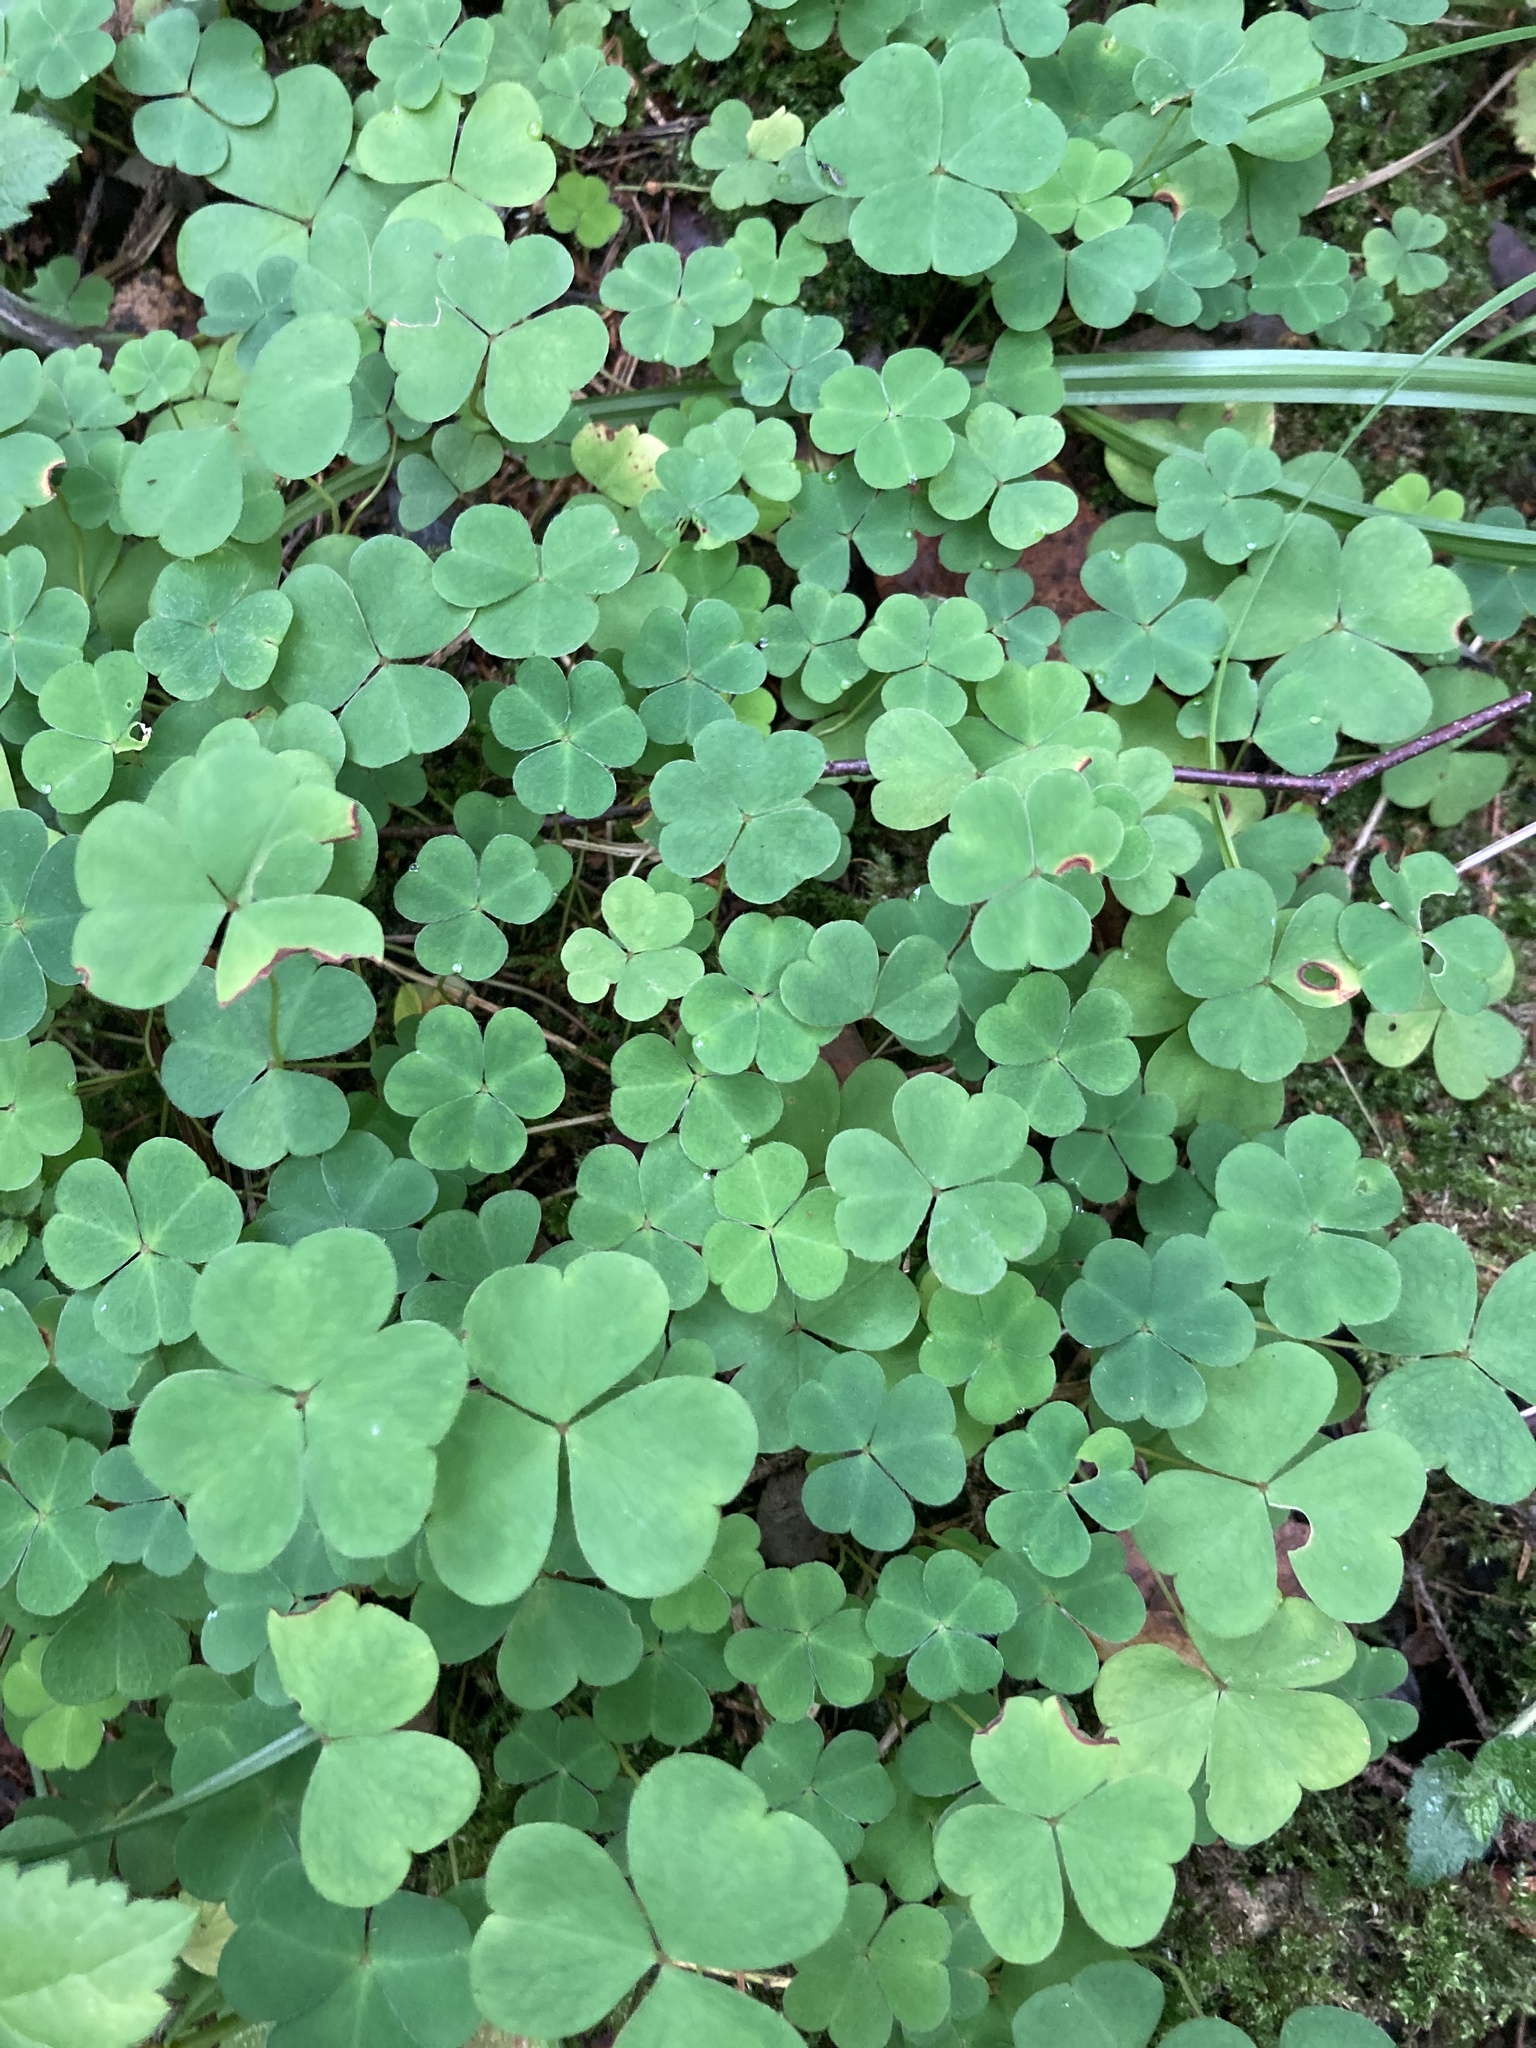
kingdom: Plantae
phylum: Tracheophyta
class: Magnoliopsida
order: Oxalidales
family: Oxalidaceae
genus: Oxalis
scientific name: Oxalis acetosella
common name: Wood-sorrel
